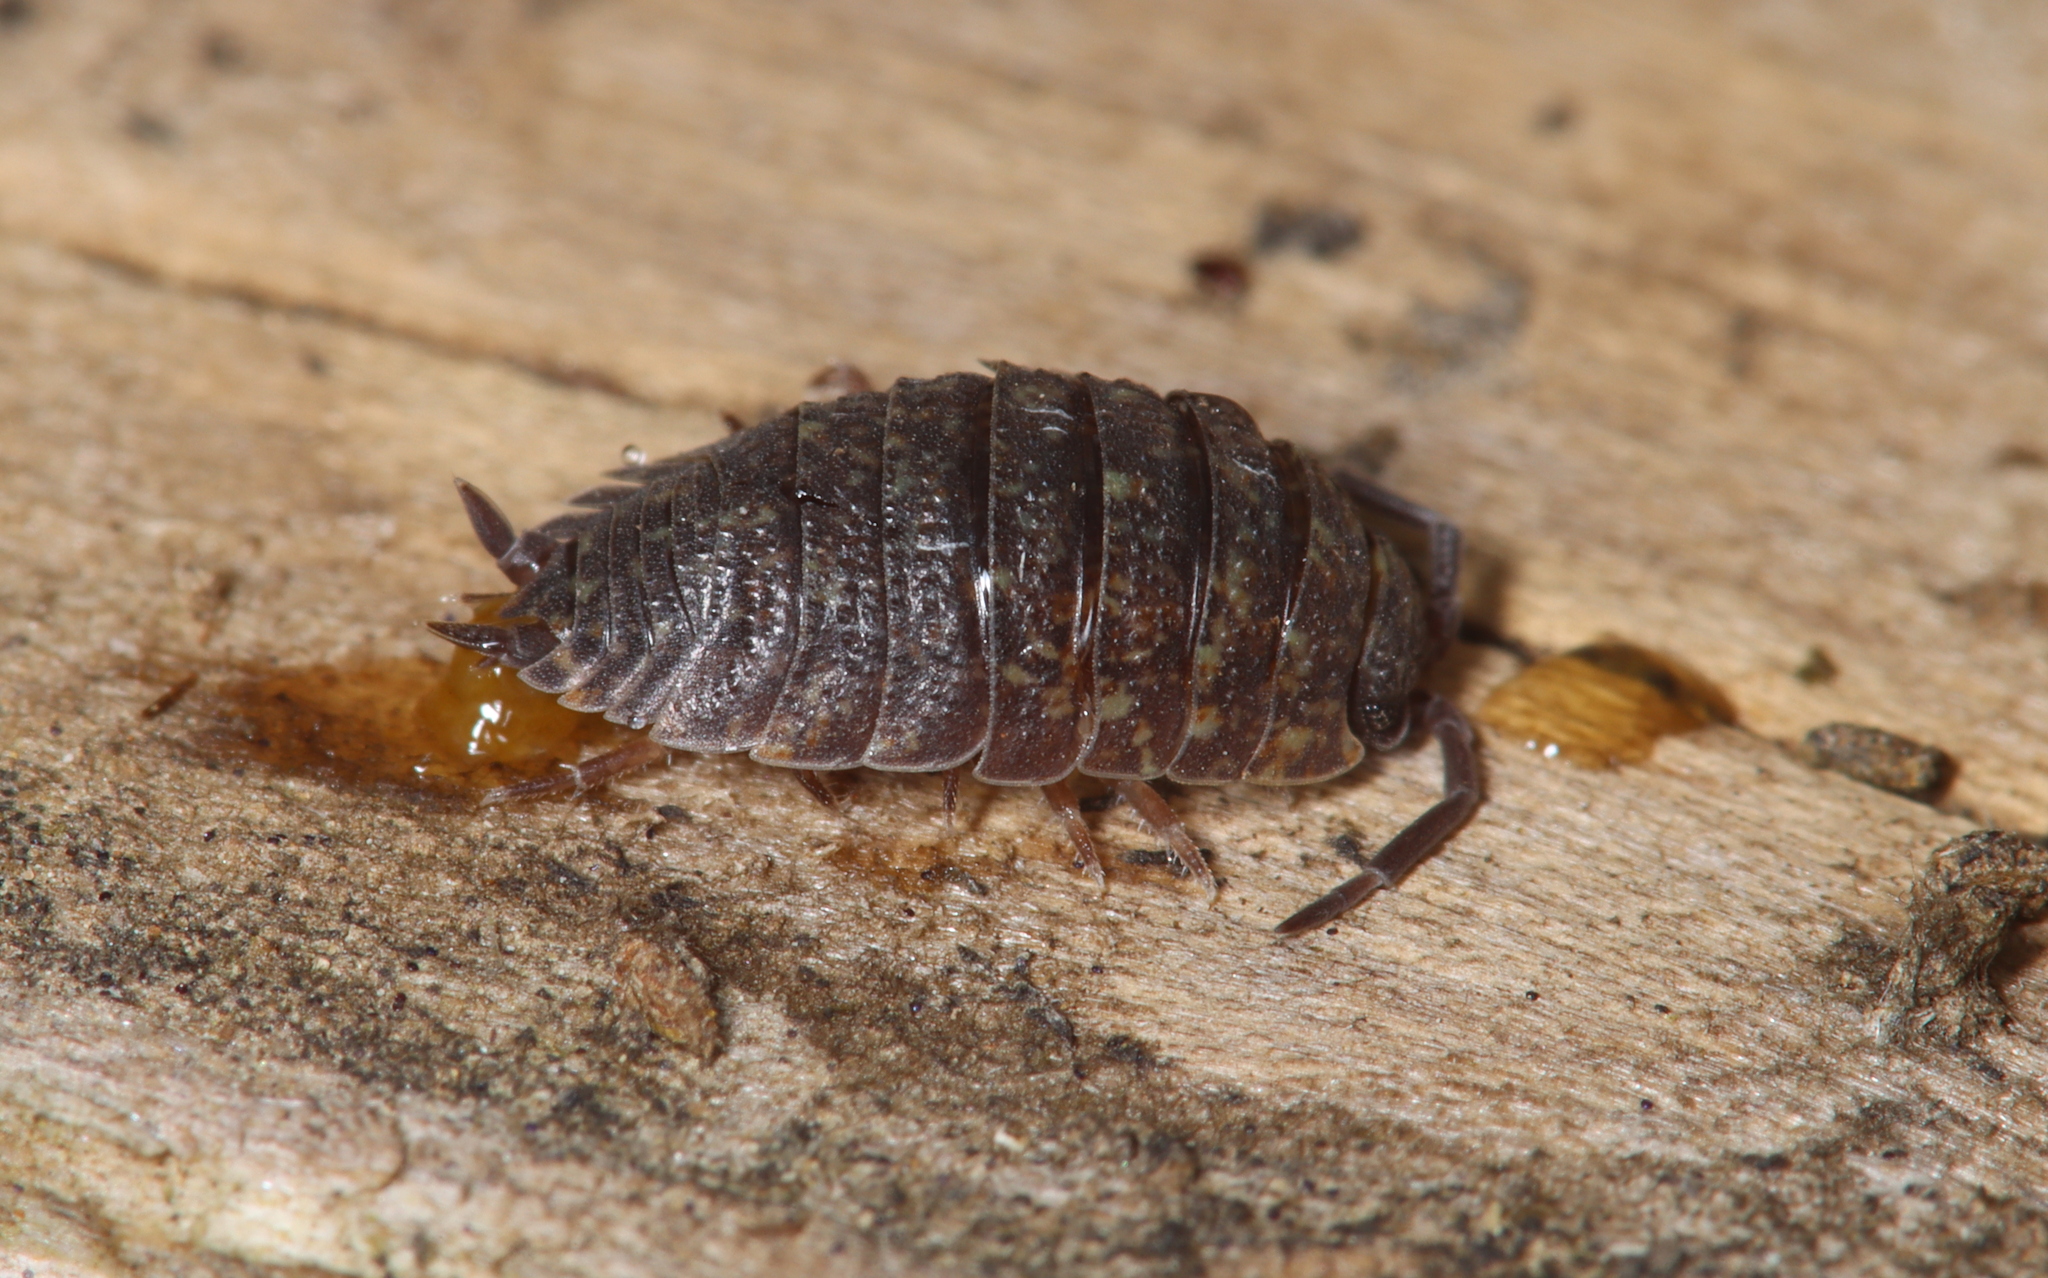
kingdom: Animalia
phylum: Arthropoda
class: Malacostraca
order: Isopoda
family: Porcellionidae
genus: Porcellio
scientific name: Porcellio scaber
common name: Common rough woodlouse
